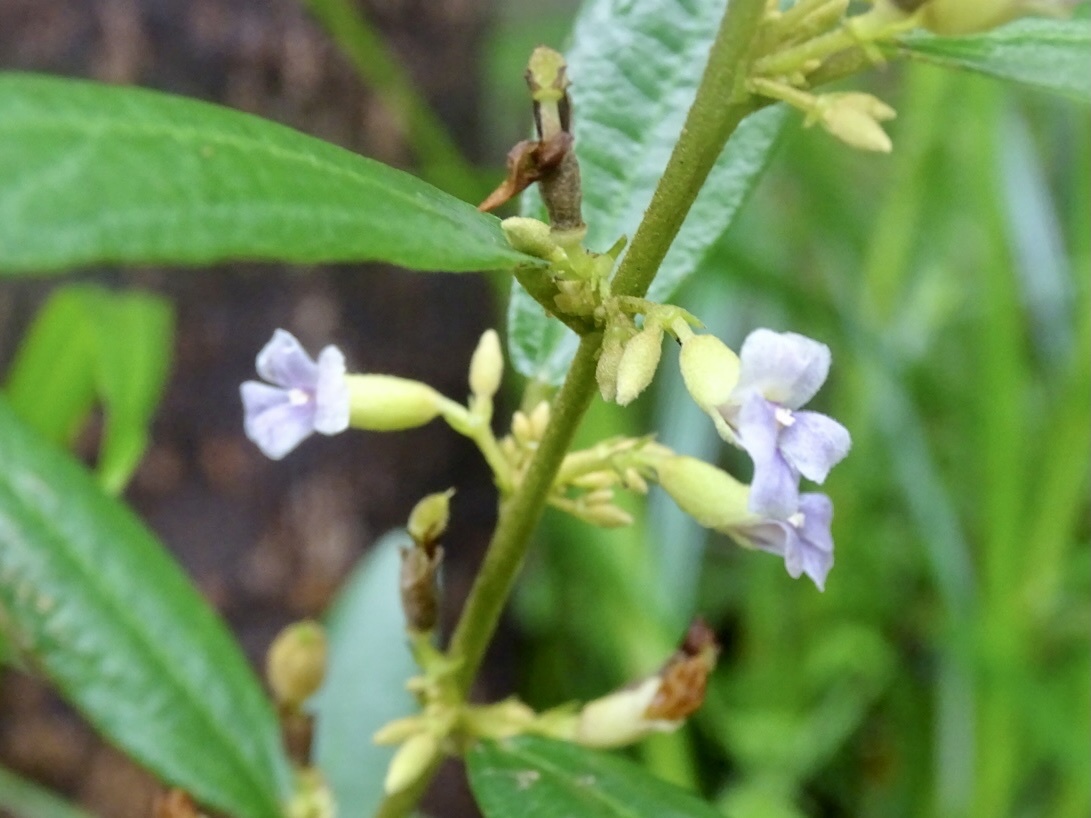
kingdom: Plantae
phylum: Tracheophyta
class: Magnoliopsida
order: Malvales
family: Malvaceae
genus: Helicteres
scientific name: Helicteres angustifolia
